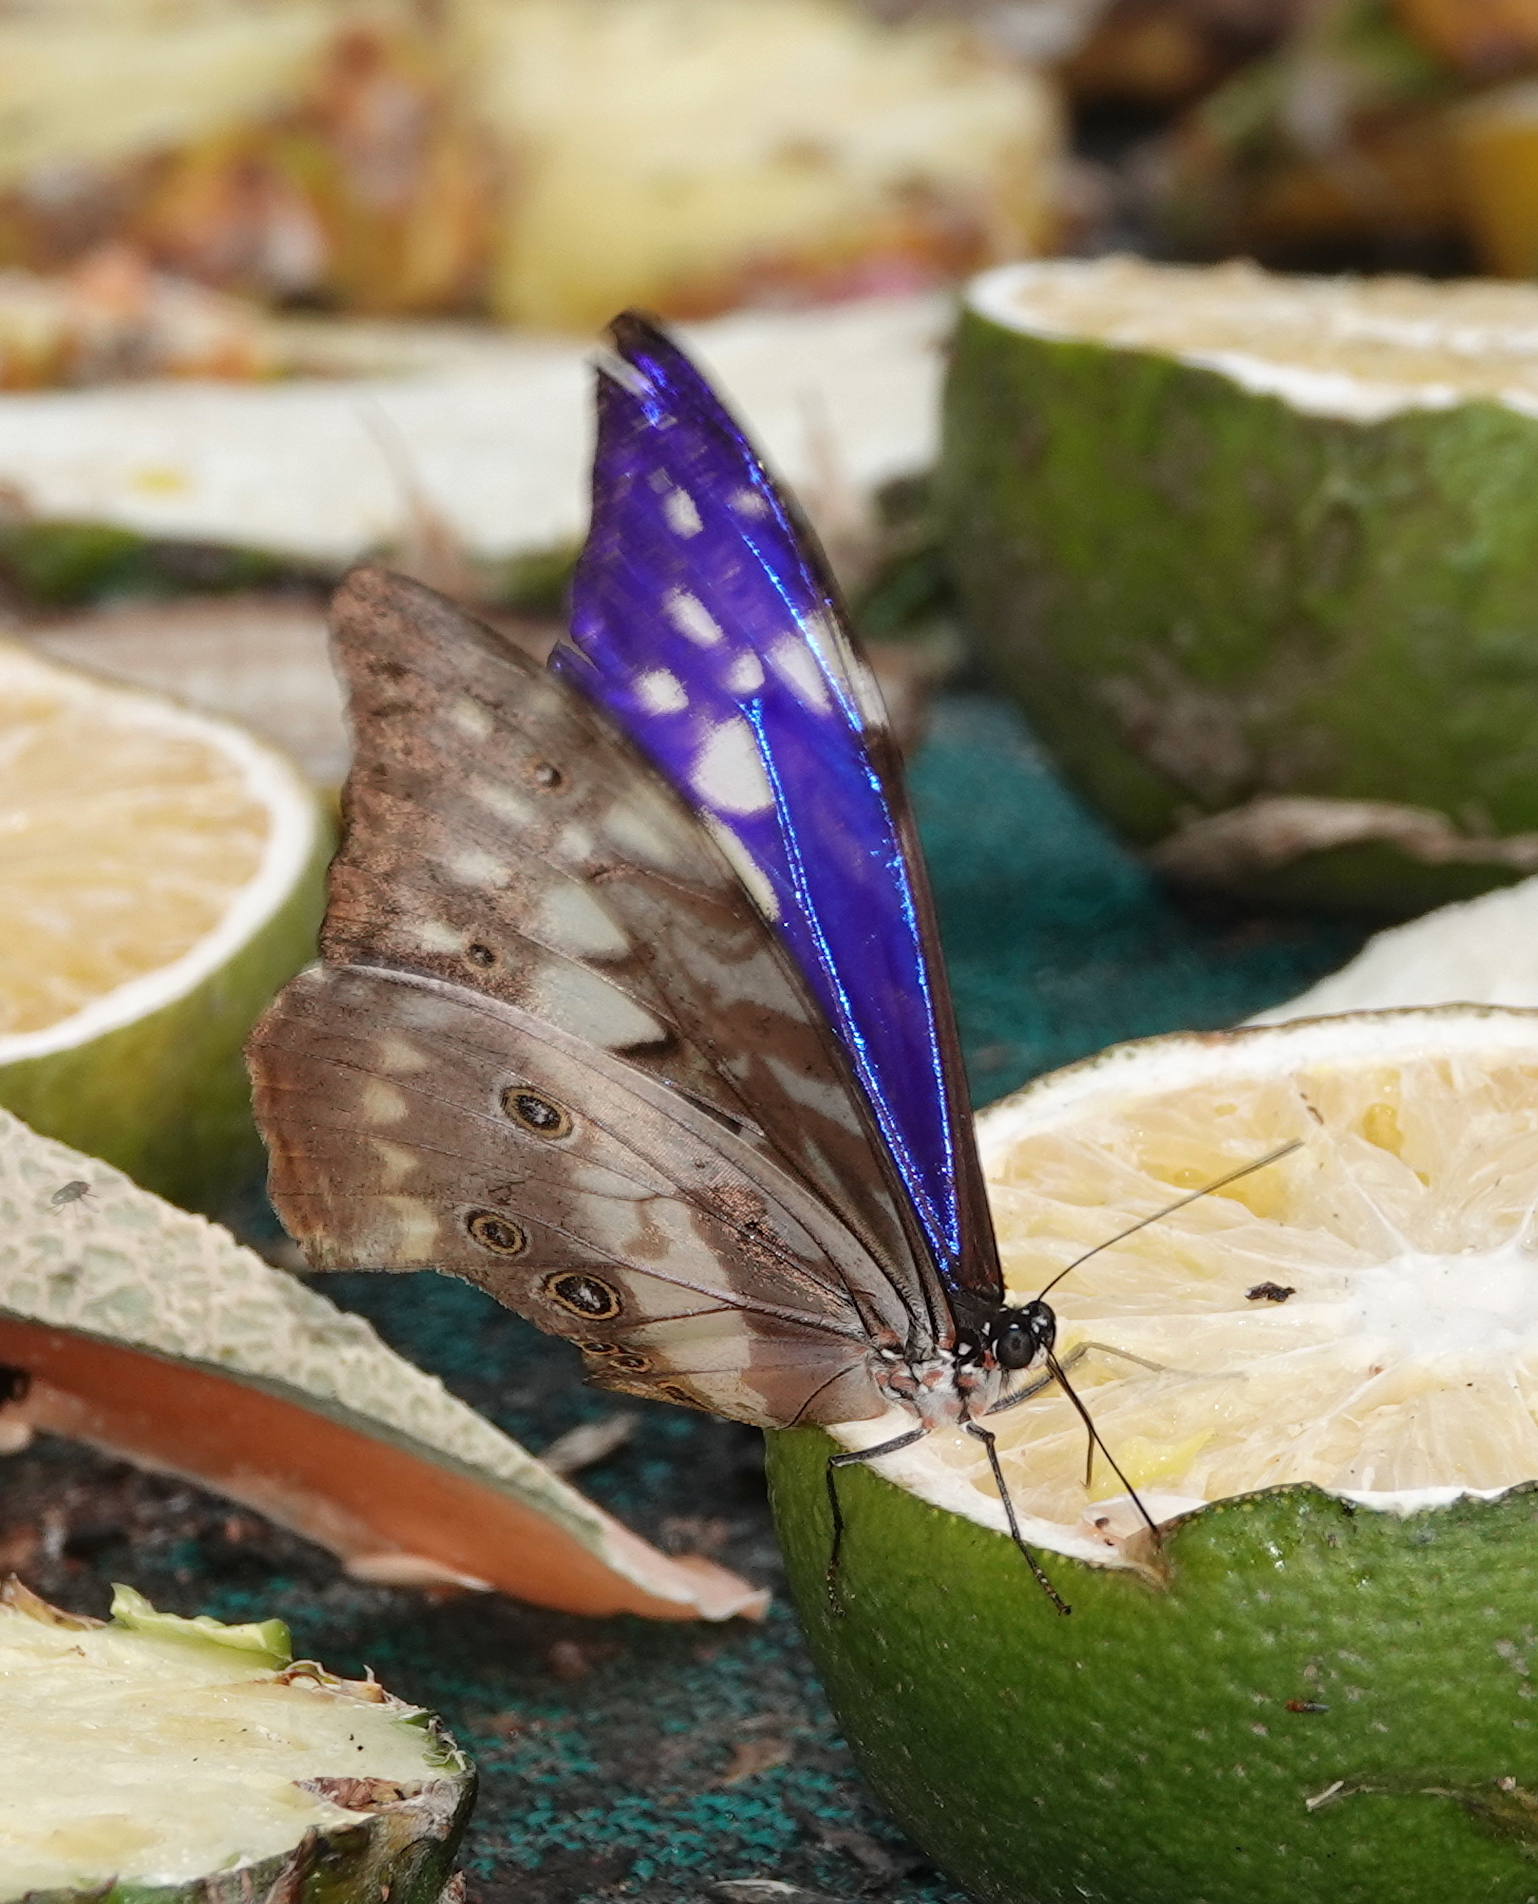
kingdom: Animalia
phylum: Arthropoda
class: Insecta
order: Lepidoptera
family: Nymphalidae
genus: Morpho
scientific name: Morpho cypris
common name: Cypris morpho
